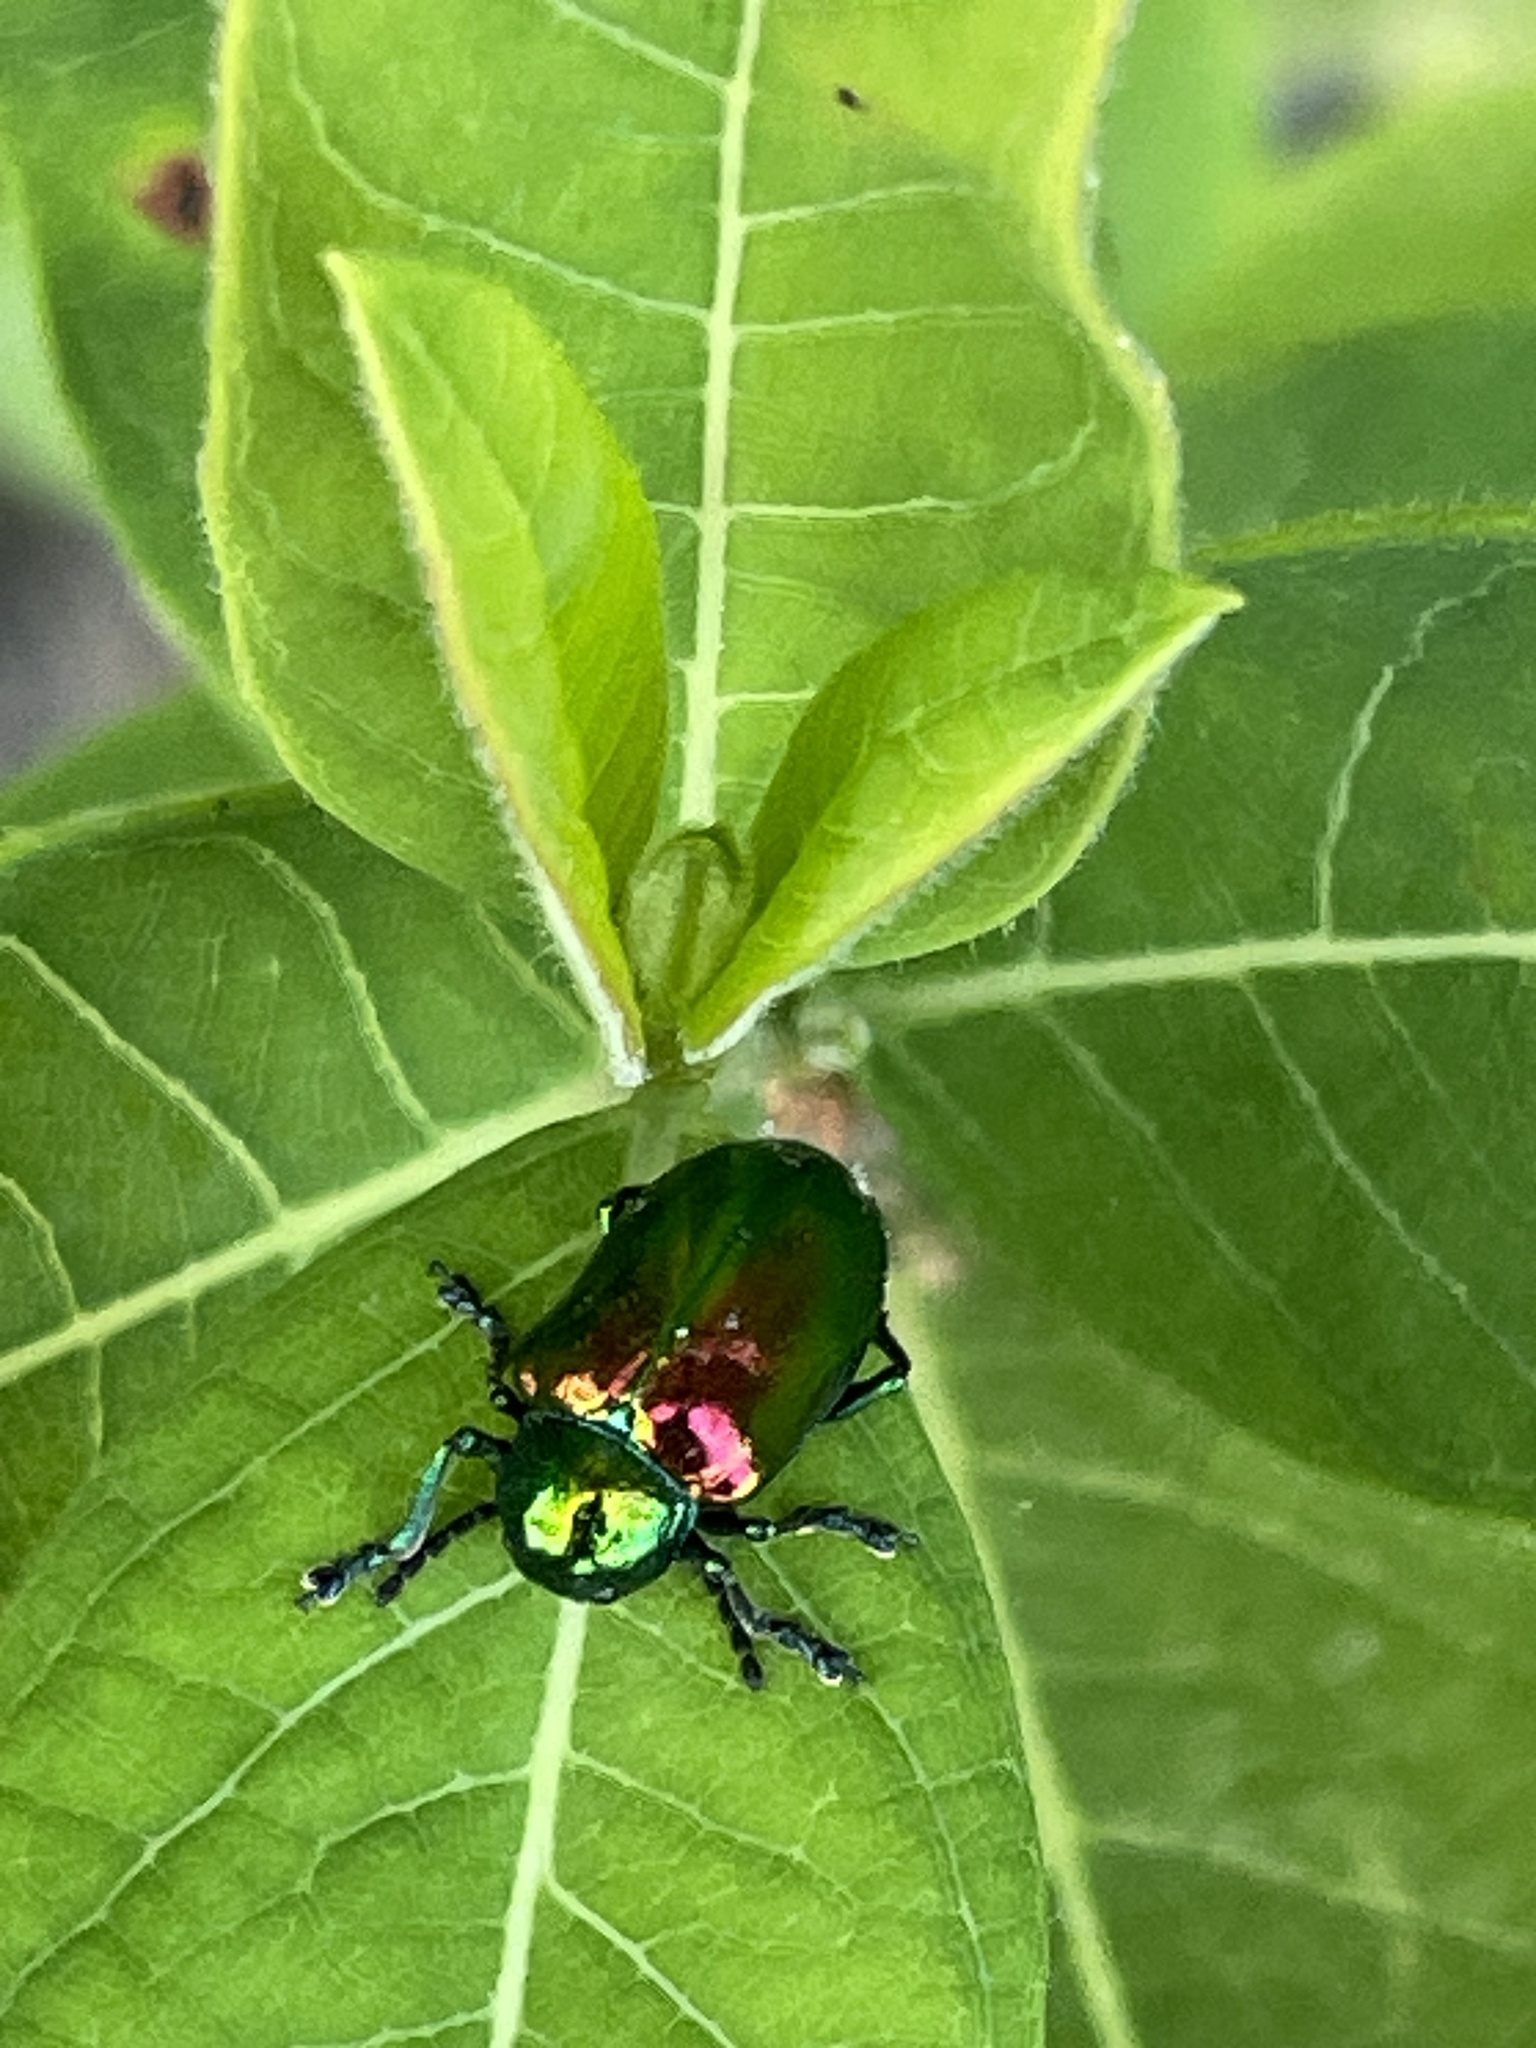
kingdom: Animalia
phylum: Arthropoda
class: Insecta
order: Coleoptera
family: Chrysomelidae
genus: Chrysochus
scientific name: Chrysochus auratus
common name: Dogbane leaf beetle
